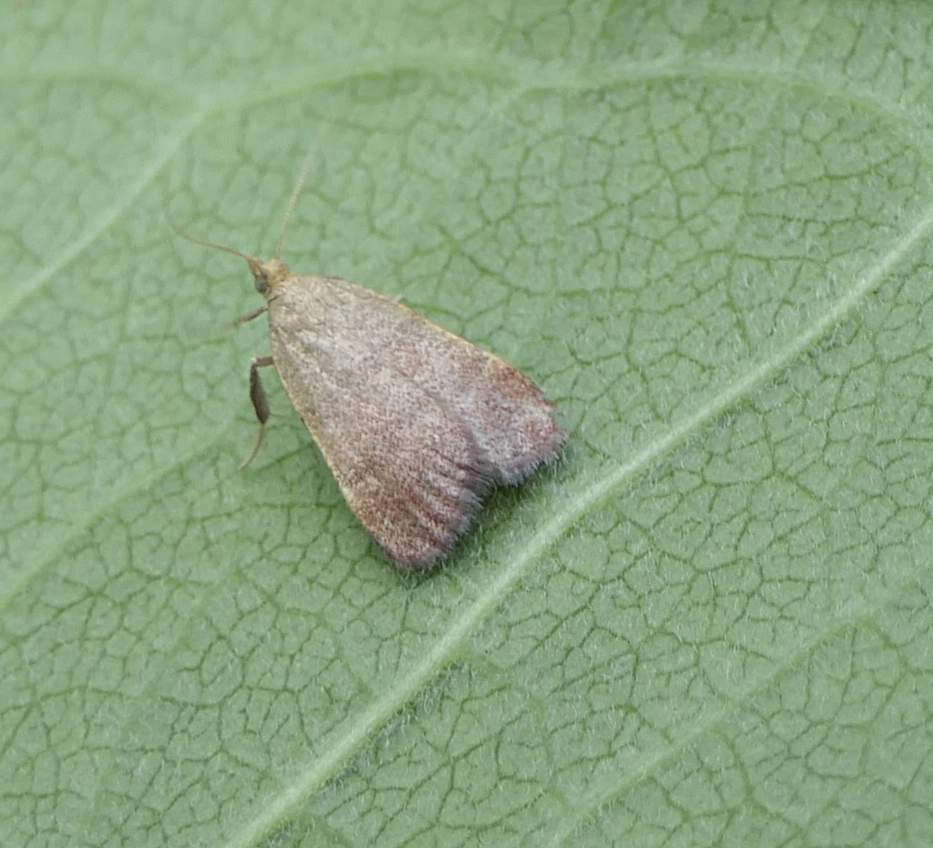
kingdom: Animalia
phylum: Arthropoda
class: Insecta
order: Lepidoptera
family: Pyralidae
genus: Condylolomia
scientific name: Condylolomia participialis
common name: Drab condylolomia moth
